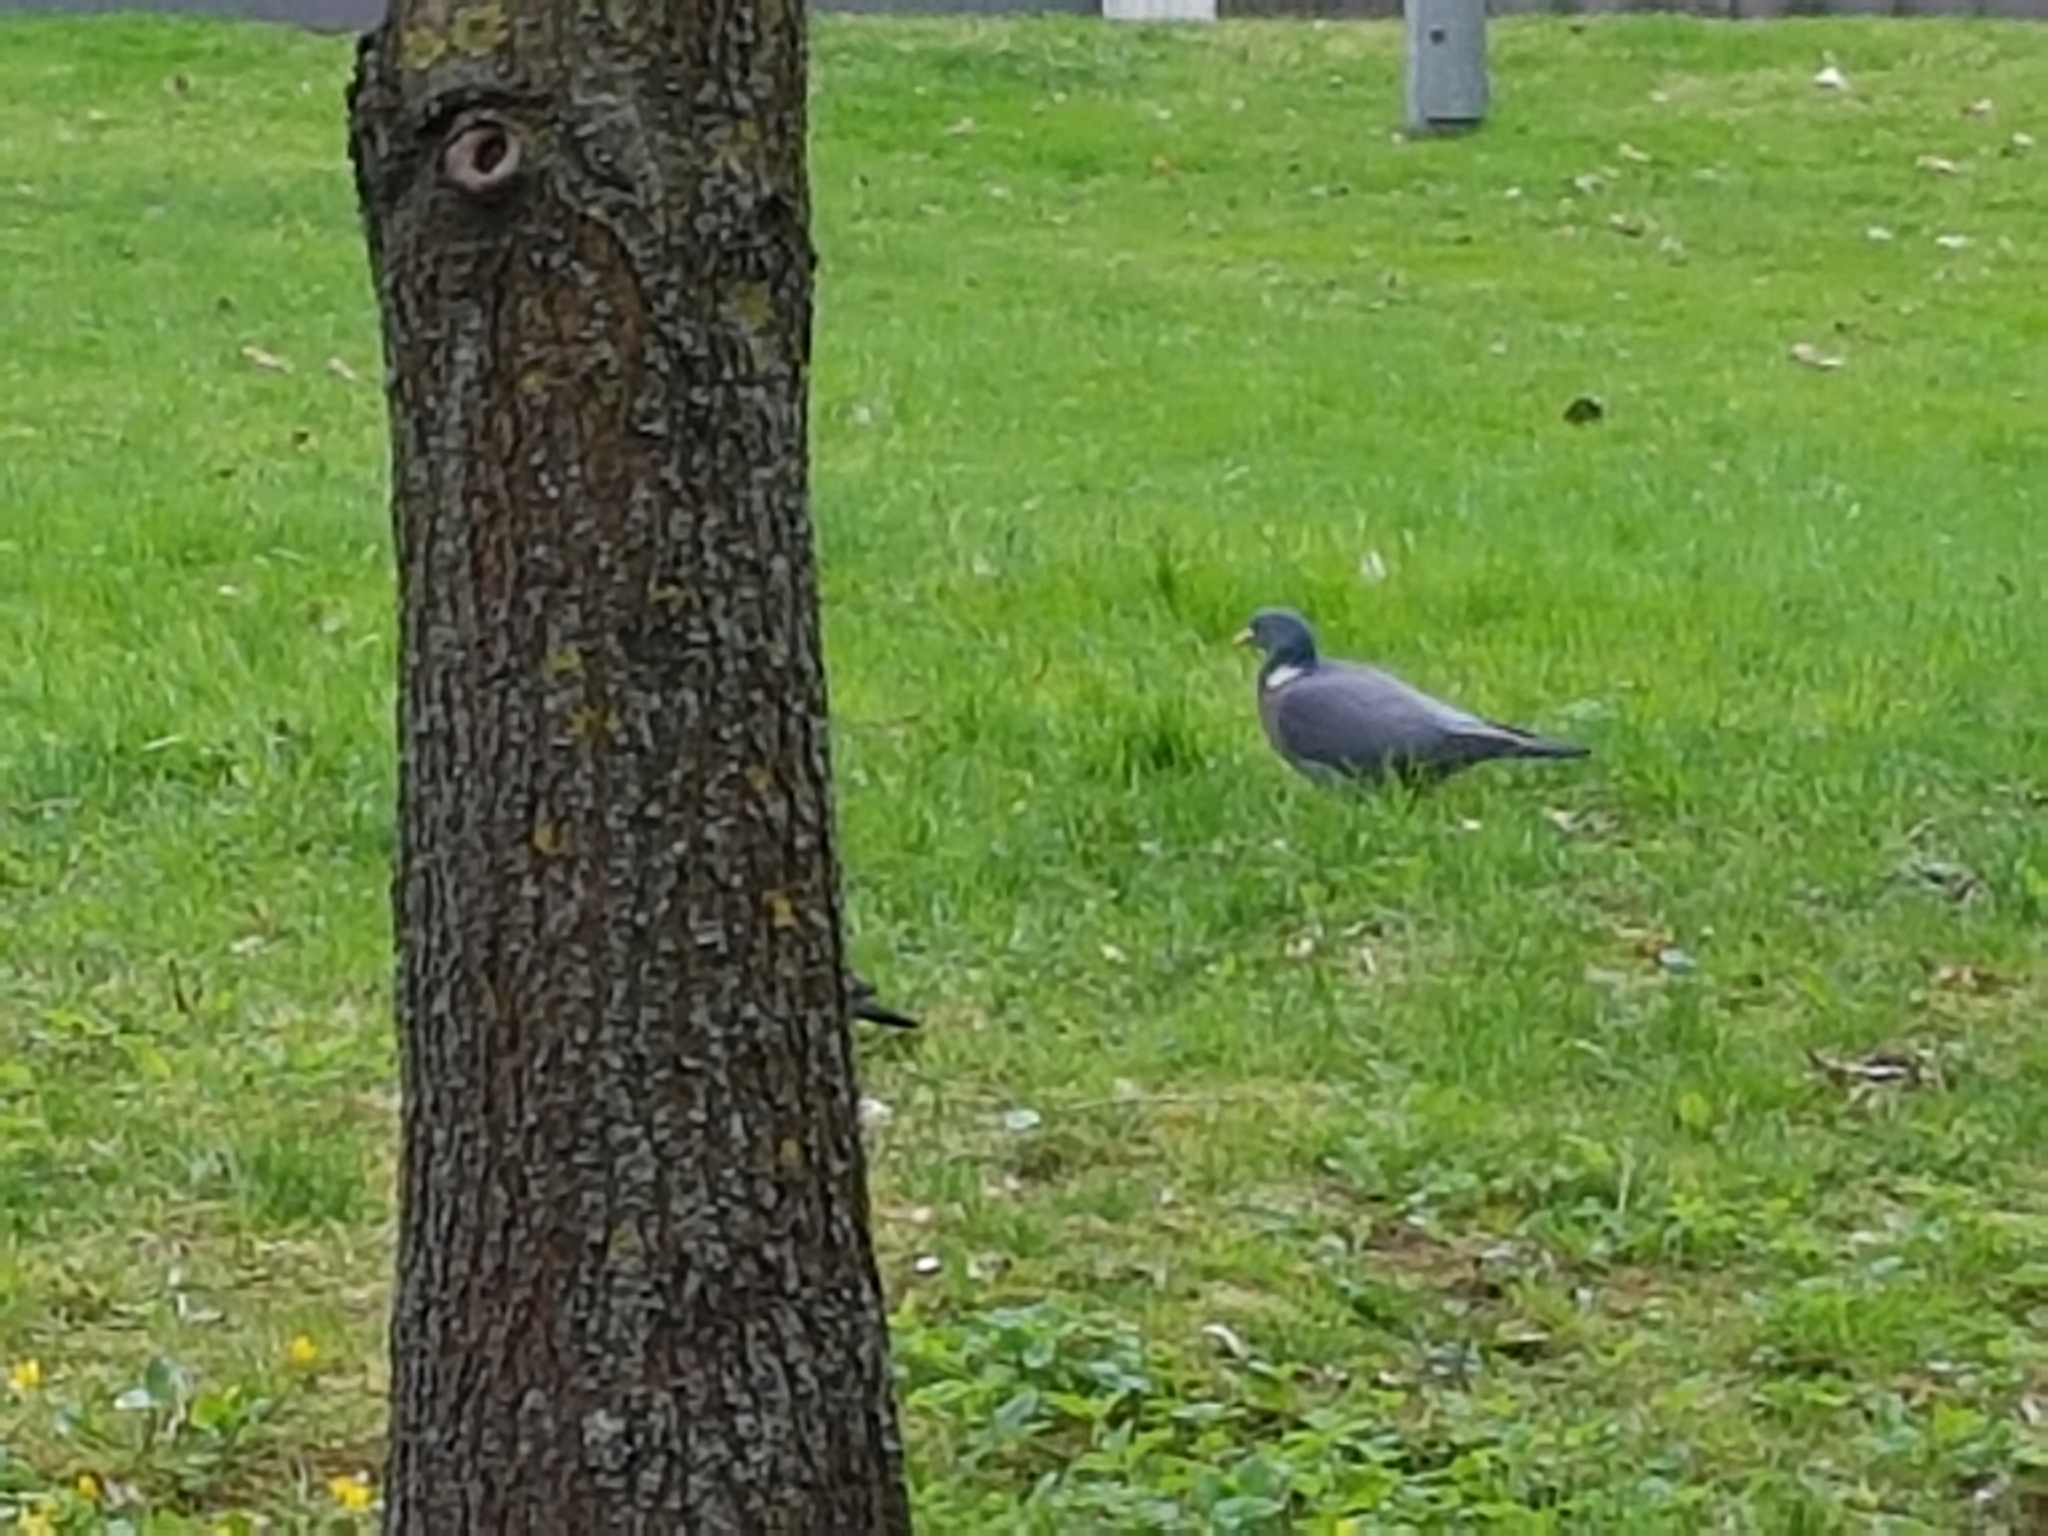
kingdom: Animalia
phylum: Chordata
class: Aves
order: Columbiformes
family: Columbidae
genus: Columba
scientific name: Columba palumbus
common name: Common wood pigeon
